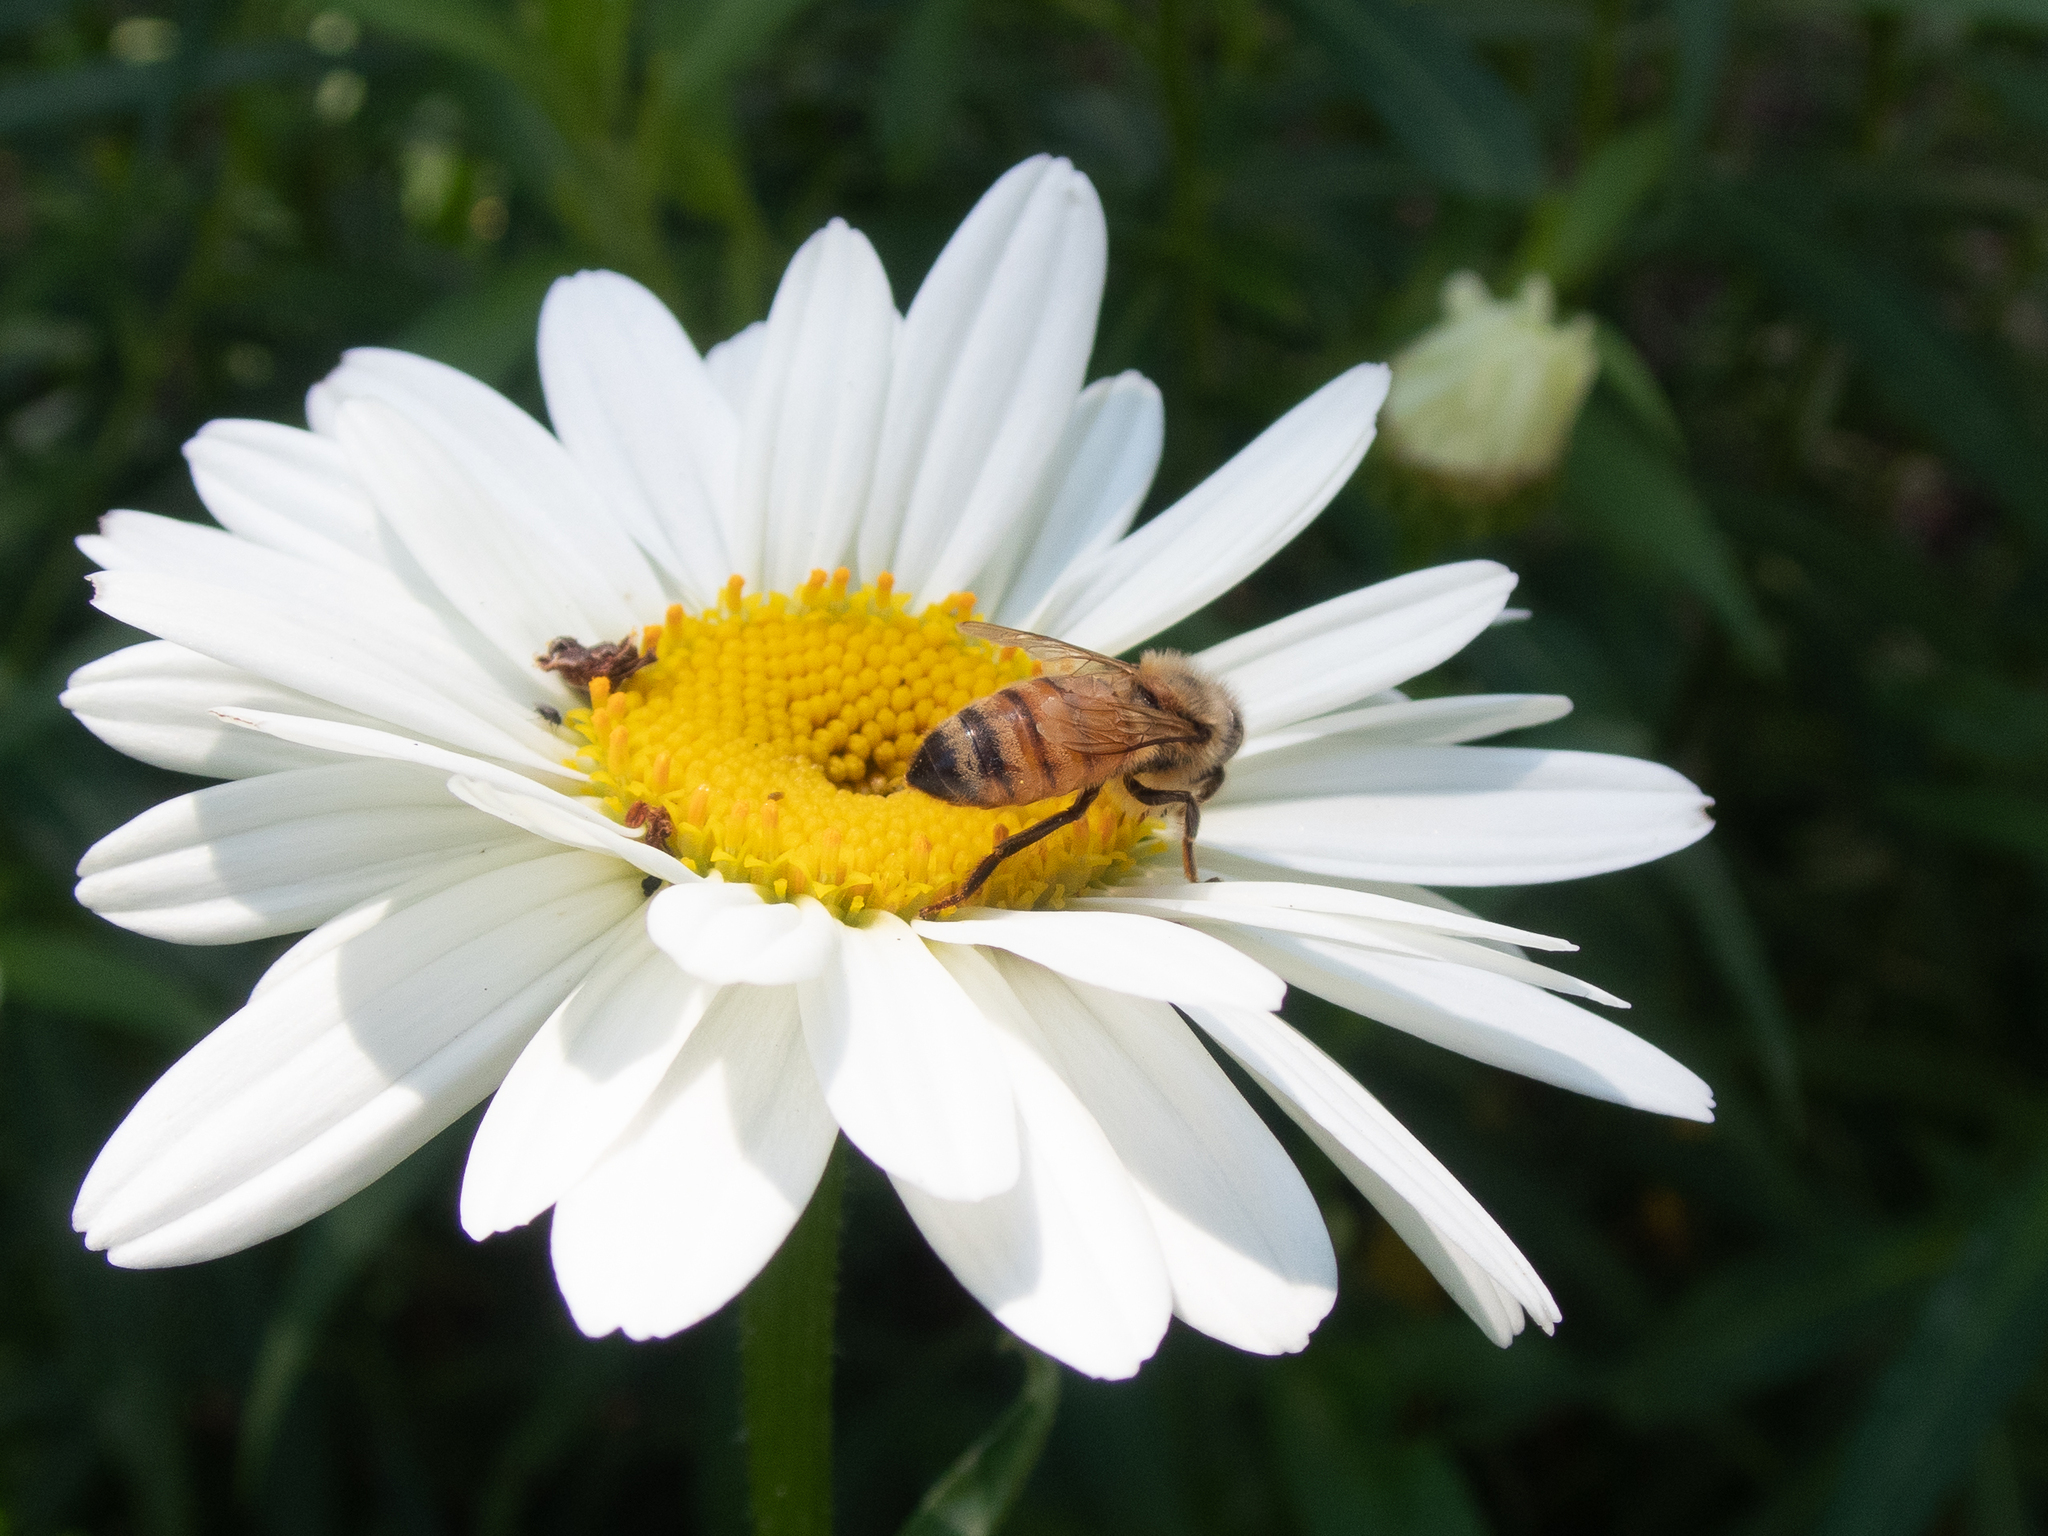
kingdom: Animalia
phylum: Arthropoda
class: Insecta
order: Hymenoptera
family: Apidae
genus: Apis
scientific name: Apis mellifera
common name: Honey bee
